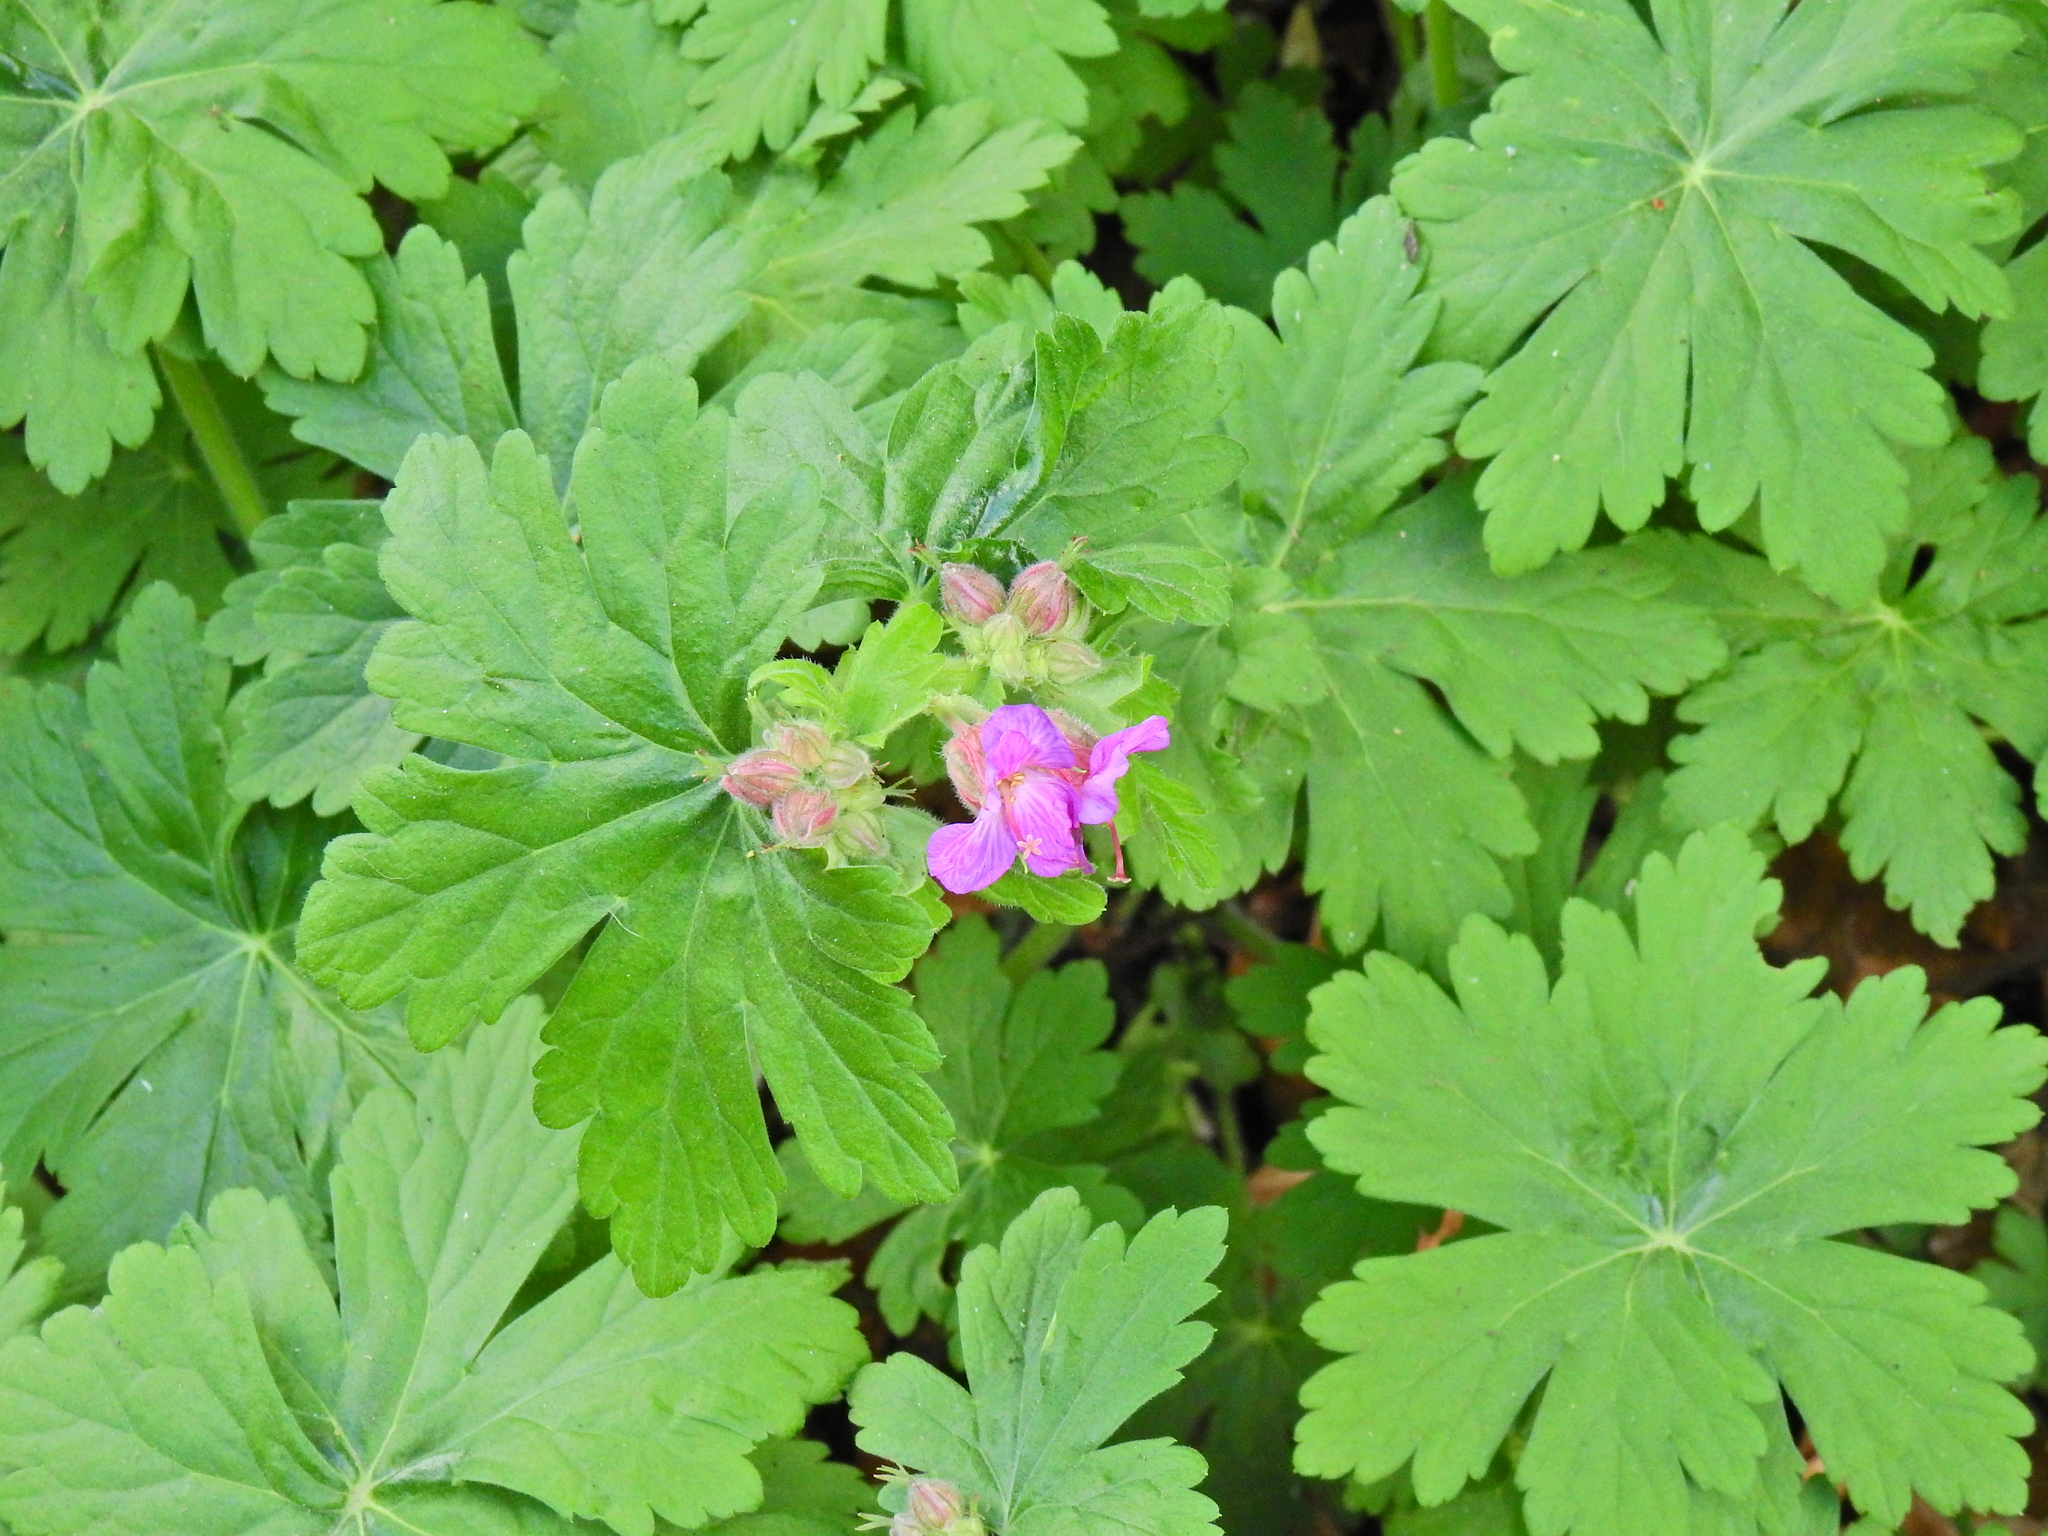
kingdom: Plantae
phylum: Tracheophyta
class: Magnoliopsida
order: Geraniales
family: Geraniaceae
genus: Geranium
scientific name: Geranium macrorrhizum
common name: Rock crane's-bill
